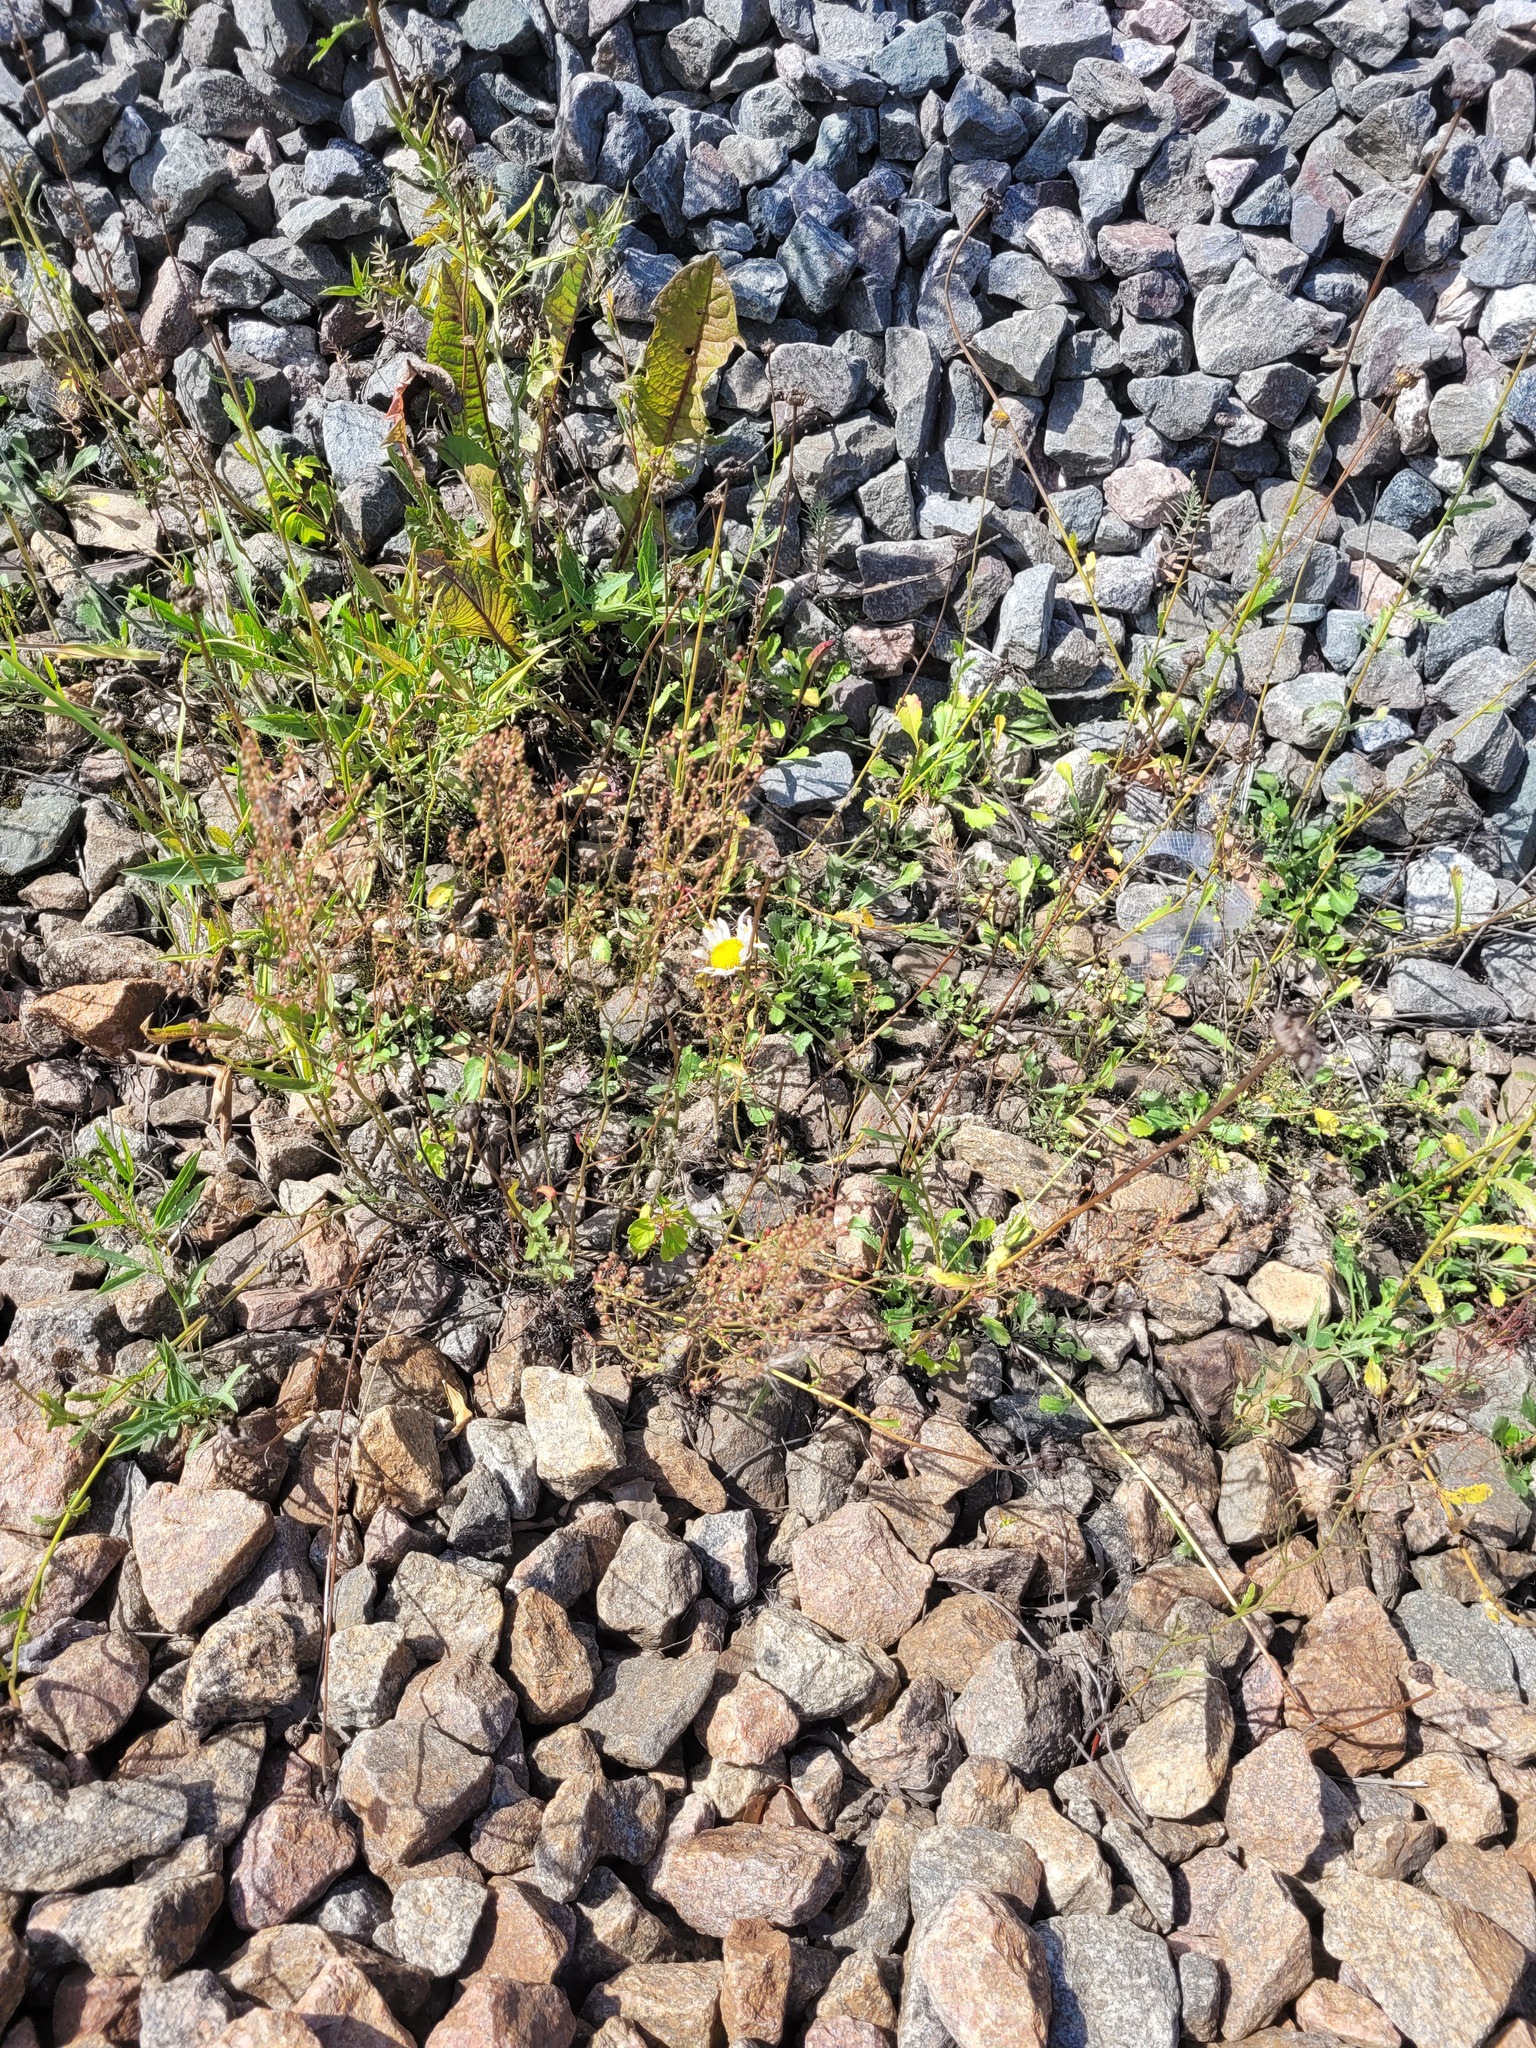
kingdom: Plantae
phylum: Tracheophyta
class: Magnoliopsida
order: Caryophyllales
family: Polygonaceae
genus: Rumex
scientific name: Rumex acetosella
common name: Common sheep sorrel
